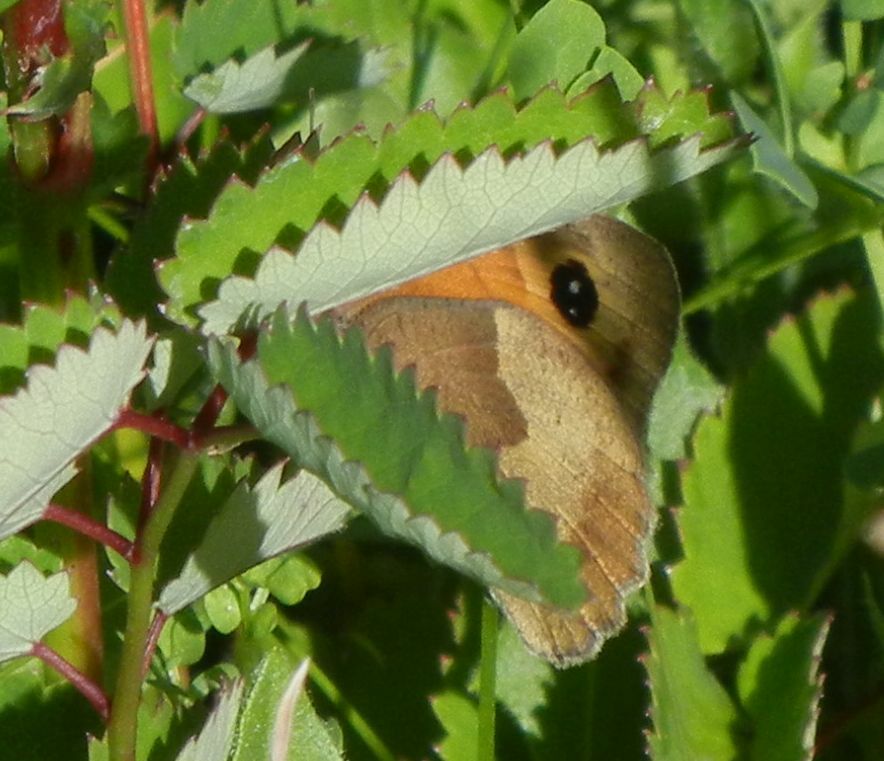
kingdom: Animalia
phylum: Arthropoda
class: Insecta
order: Lepidoptera
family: Nymphalidae
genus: Maniola
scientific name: Maniola jurtina
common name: Meadow brown
